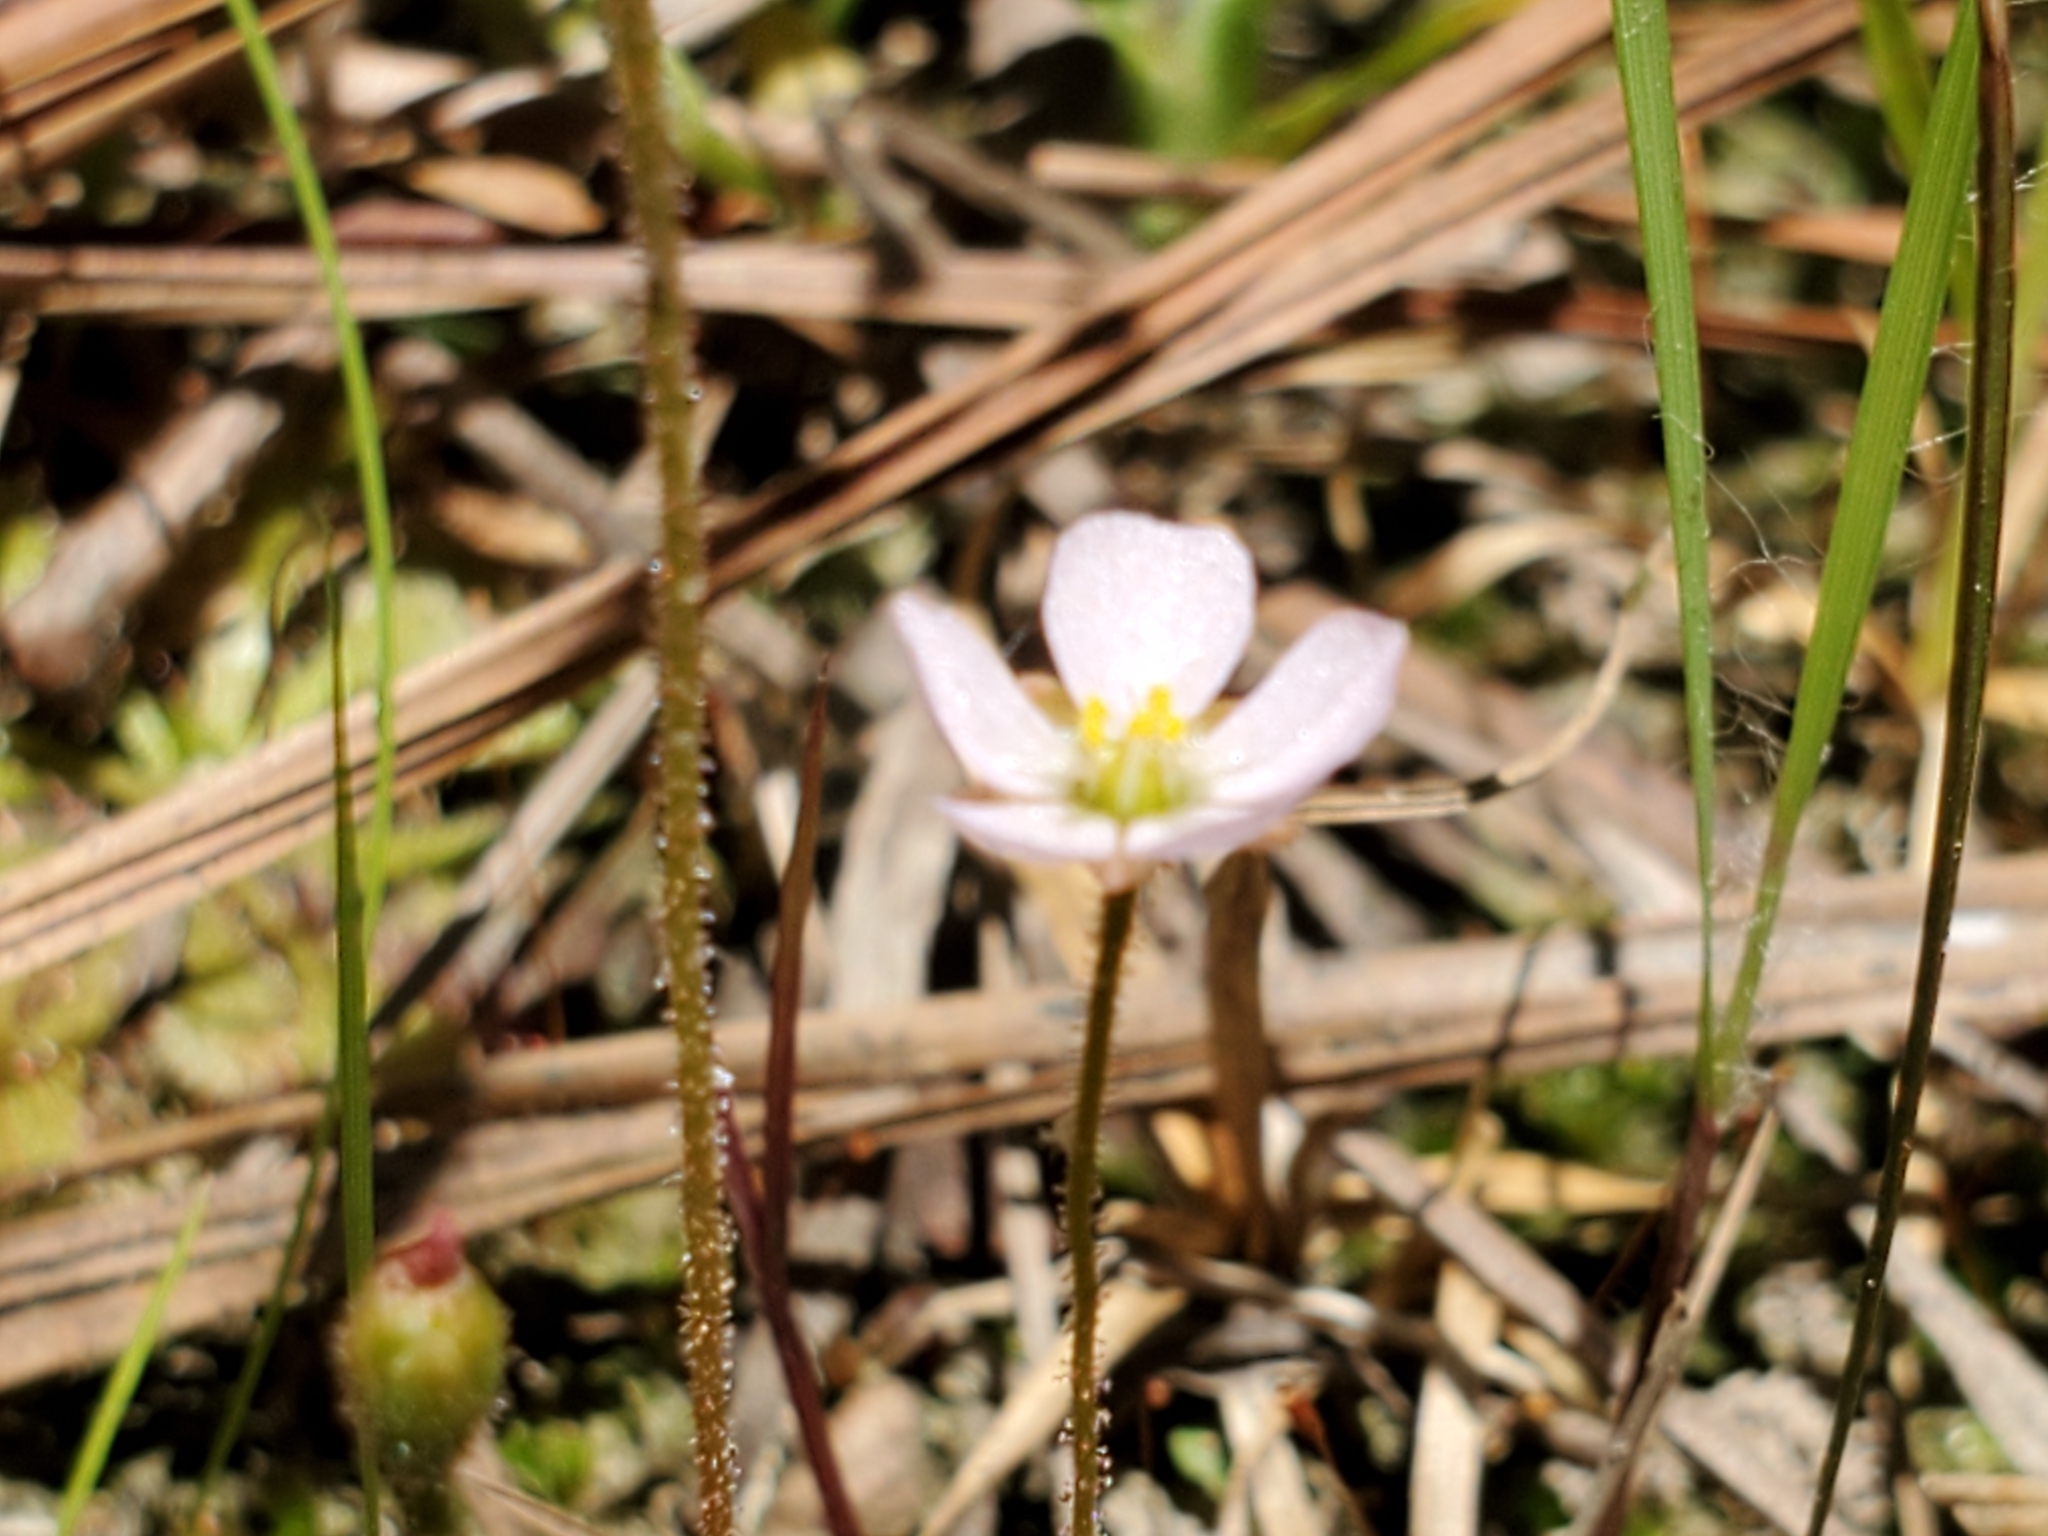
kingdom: Plantae
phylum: Tracheophyta
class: Magnoliopsida
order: Caryophyllales
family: Droseraceae
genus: Drosera
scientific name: Drosera brevifolia
